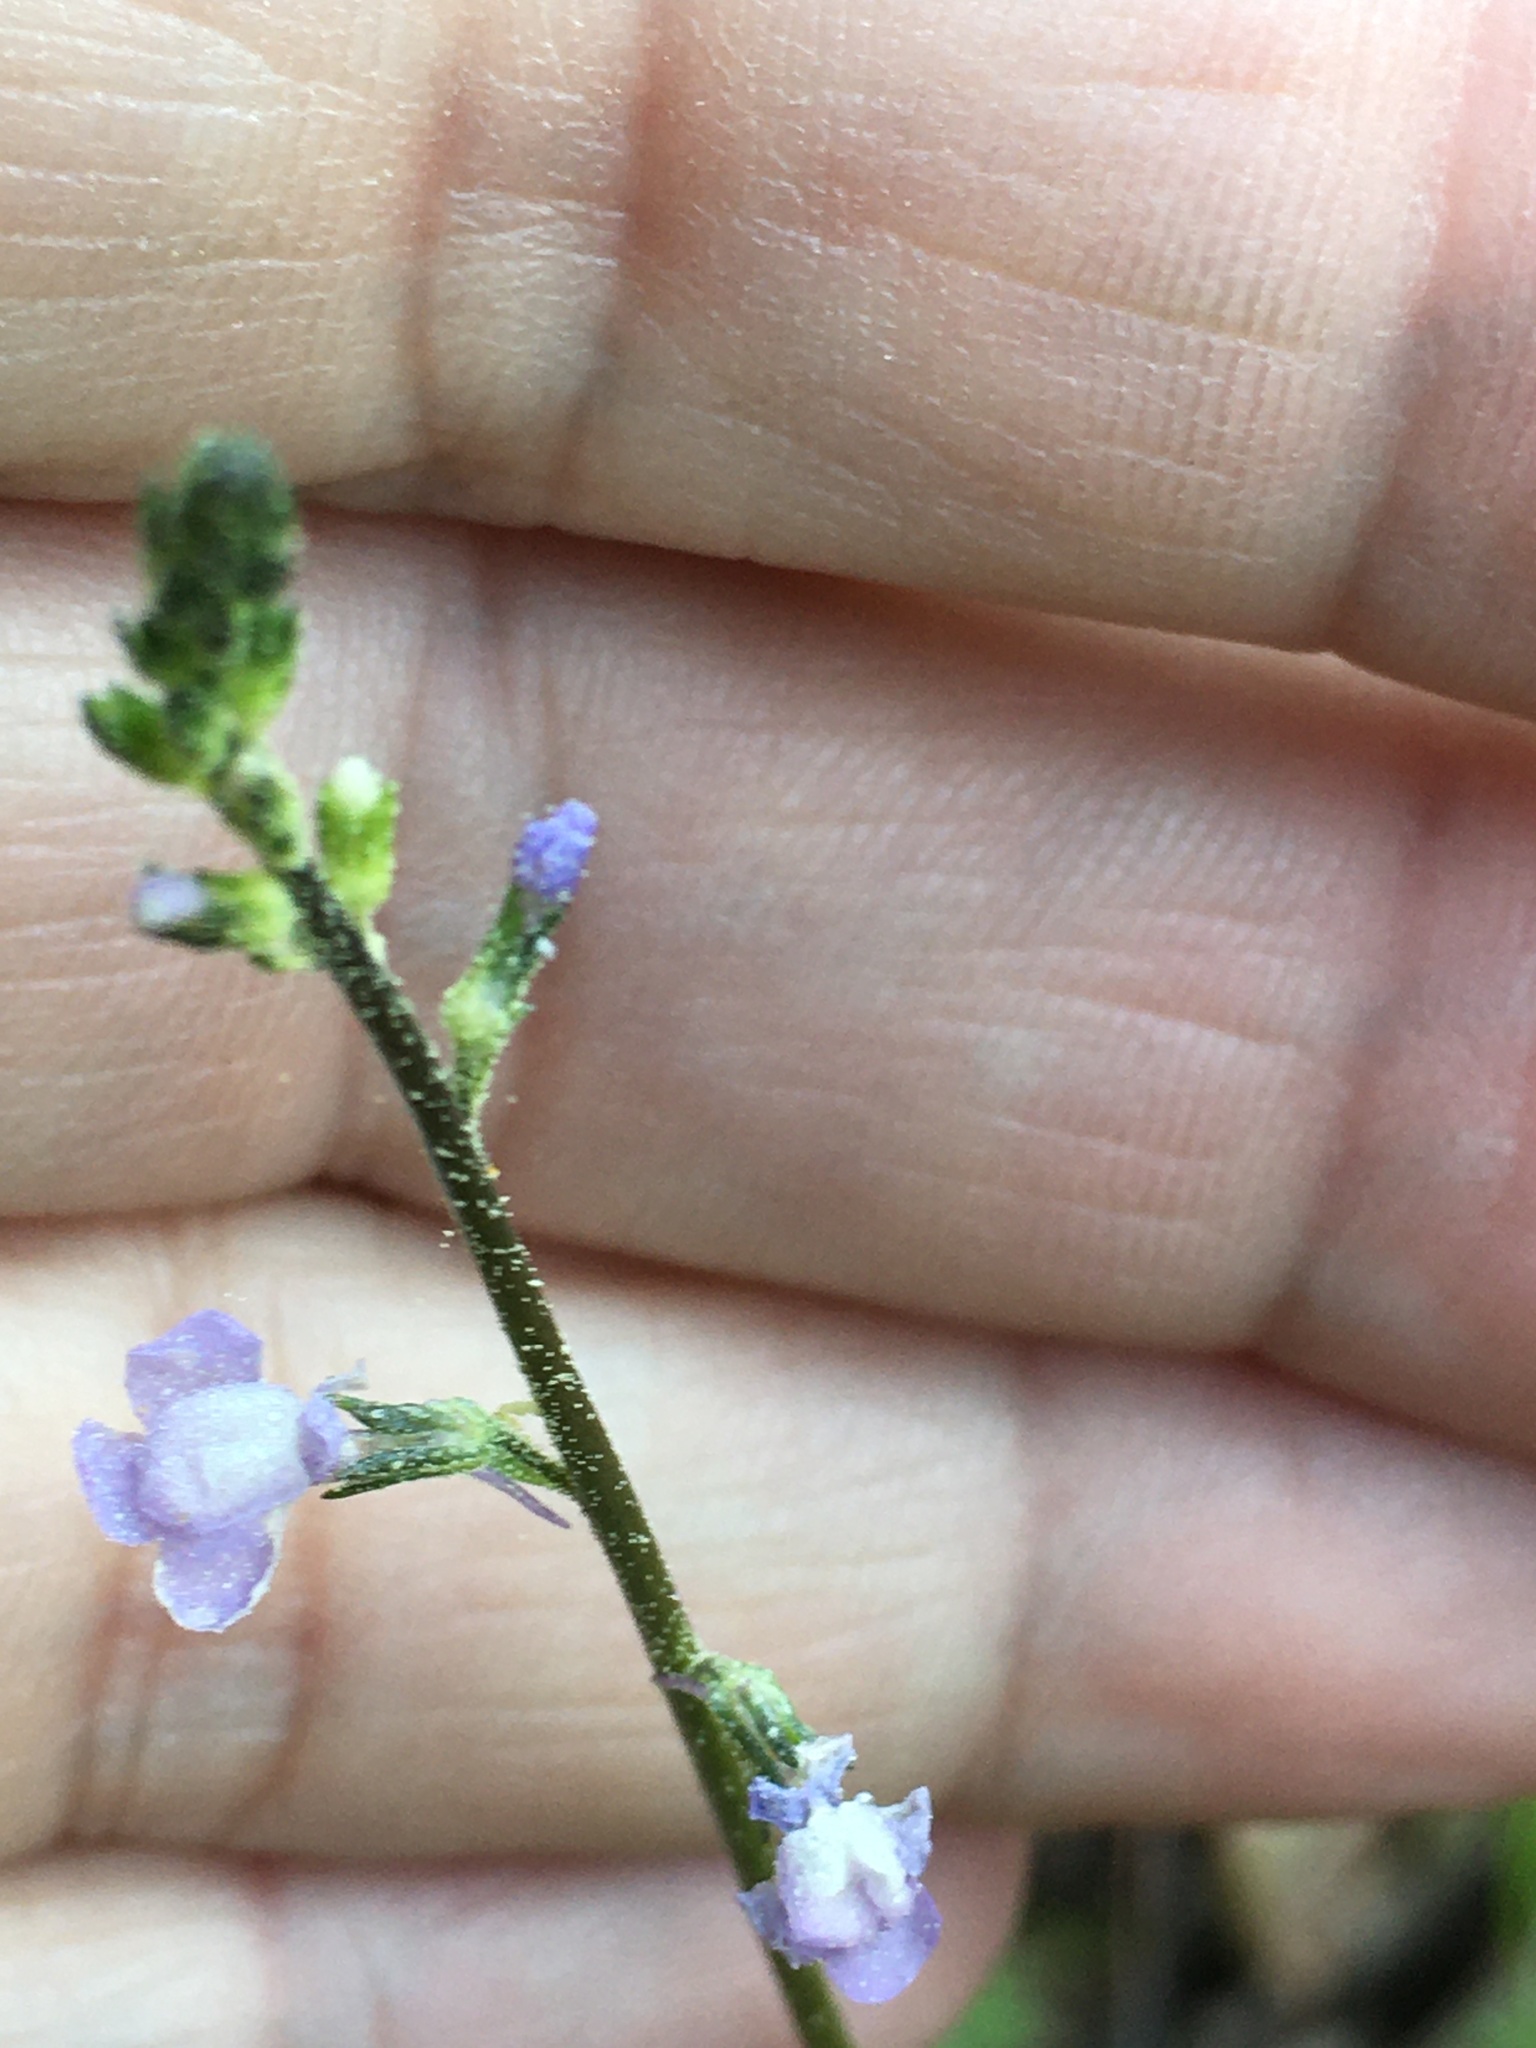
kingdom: Plantae
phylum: Tracheophyta
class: Magnoliopsida
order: Lamiales
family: Plantaginaceae
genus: Nuttallanthus
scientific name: Nuttallanthus canadensis
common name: Blue toadflax
